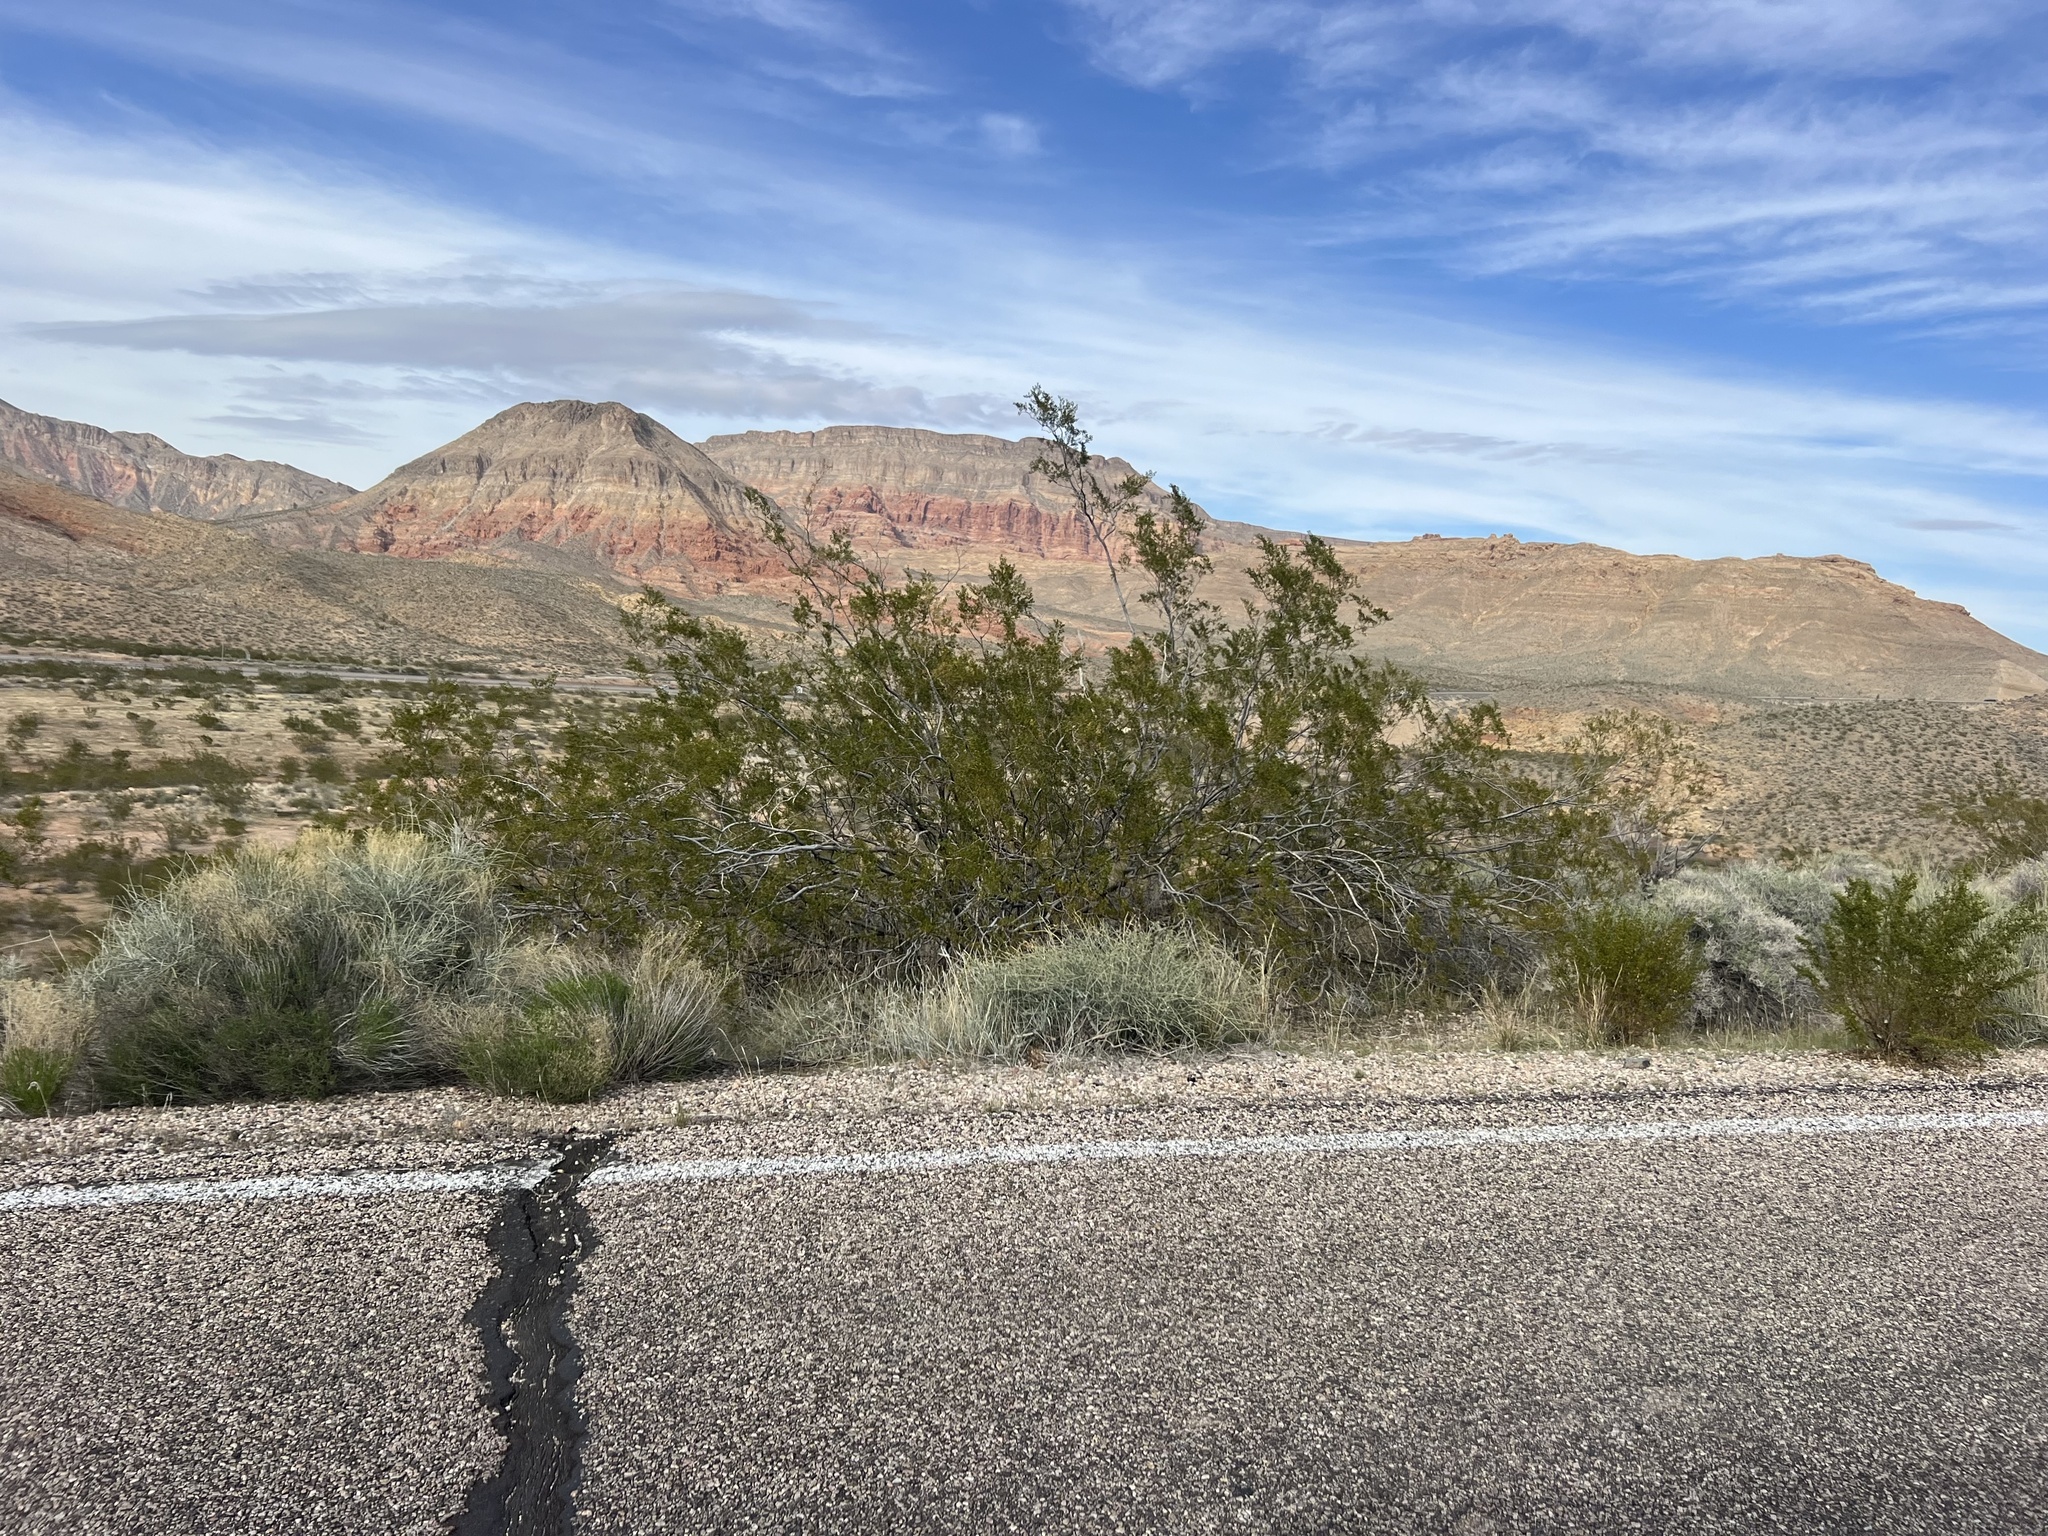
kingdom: Plantae
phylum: Tracheophyta
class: Magnoliopsida
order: Zygophyllales
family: Zygophyllaceae
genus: Larrea
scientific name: Larrea tridentata
